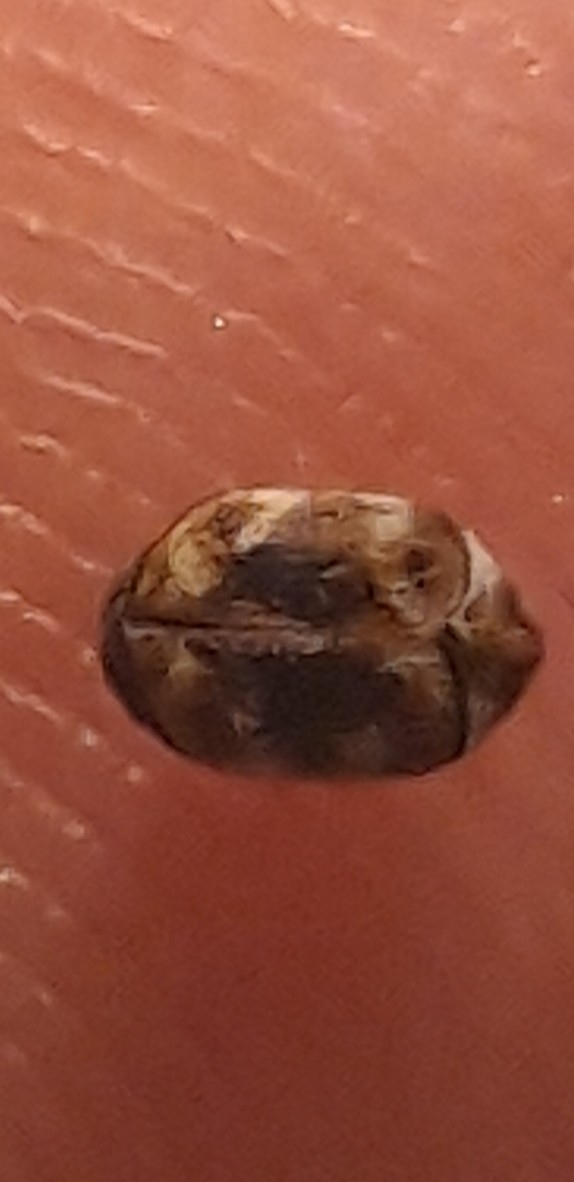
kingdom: Animalia
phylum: Arthropoda
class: Insecta
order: Coleoptera
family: Dermestidae
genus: Anthrenus
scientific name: Anthrenus verbasci
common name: Varied carpet beetle
